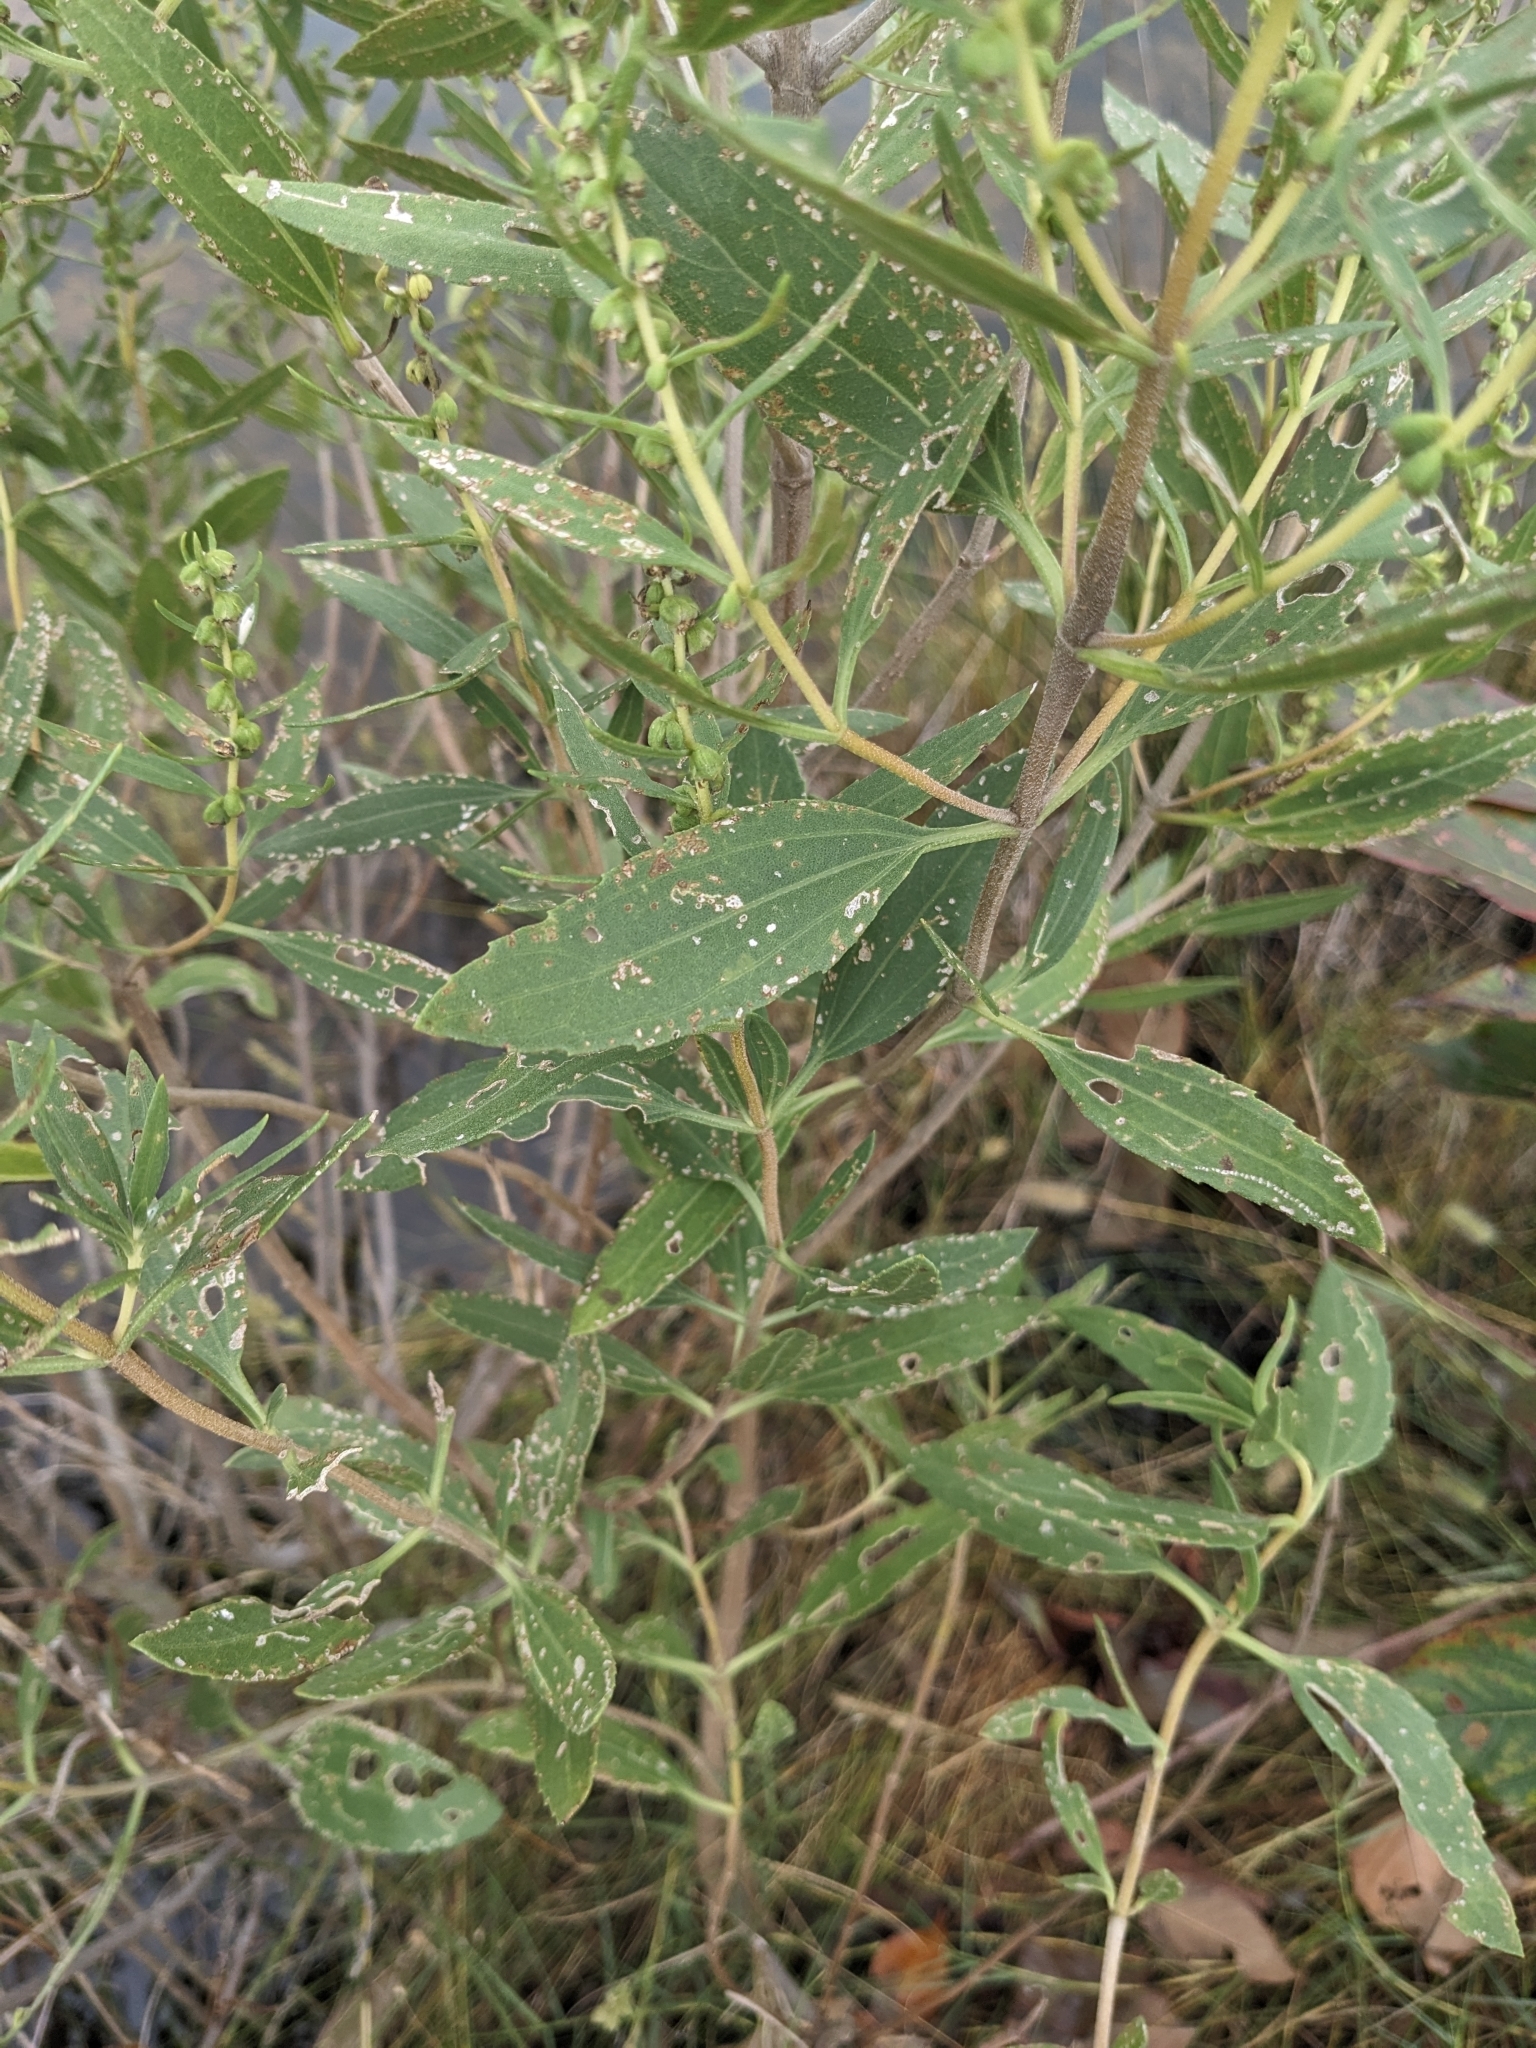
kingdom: Plantae
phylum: Tracheophyta
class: Magnoliopsida
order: Asterales
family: Asteraceae
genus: Iva
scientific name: Iva frutescens
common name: Big-leaved marsh-elder
